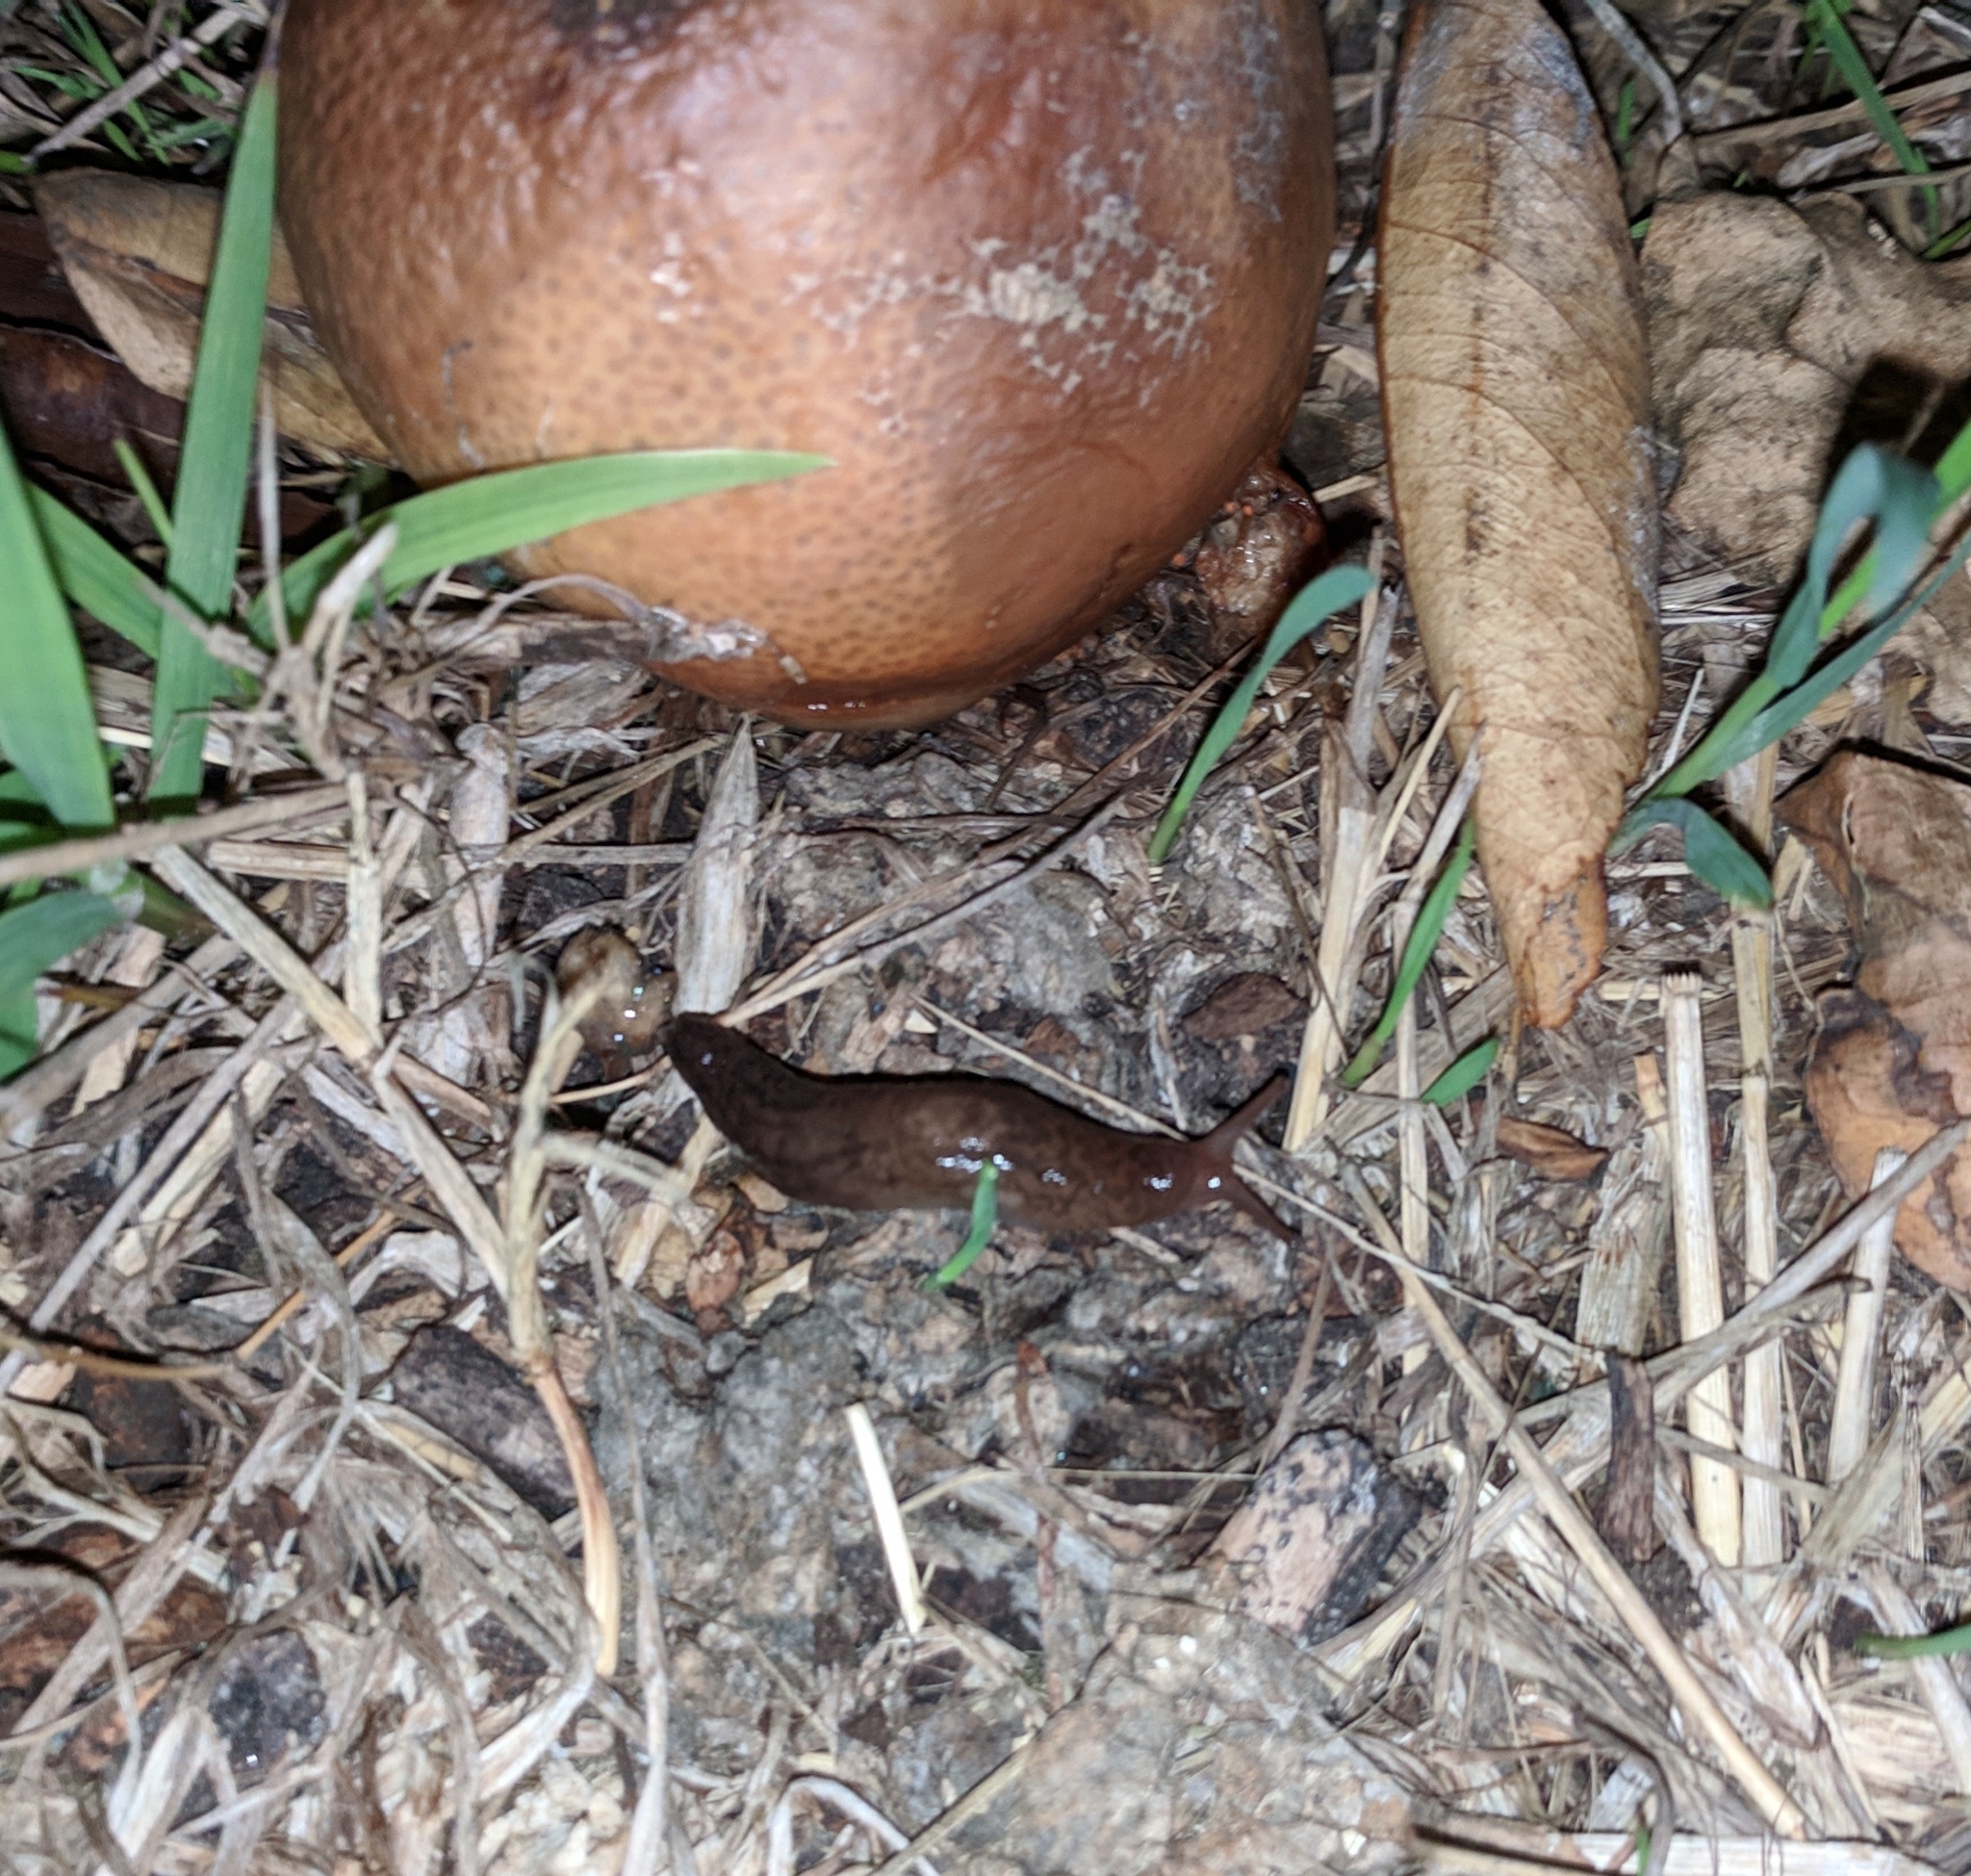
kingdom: Animalia
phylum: Mollusca
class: Gastropoda
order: Stylommatophora
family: Limacidae
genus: Ambigolimax
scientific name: Ambigolimax
